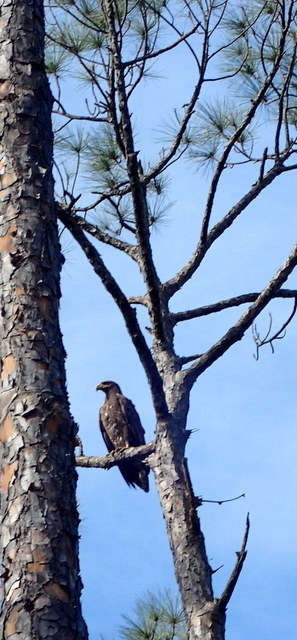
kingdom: Animalia
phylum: Chordata
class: Aves
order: Accipitriformes
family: Accipitridae
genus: Haliaeetus
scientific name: Haliaeetus leucocephalus
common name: Bald eagle
